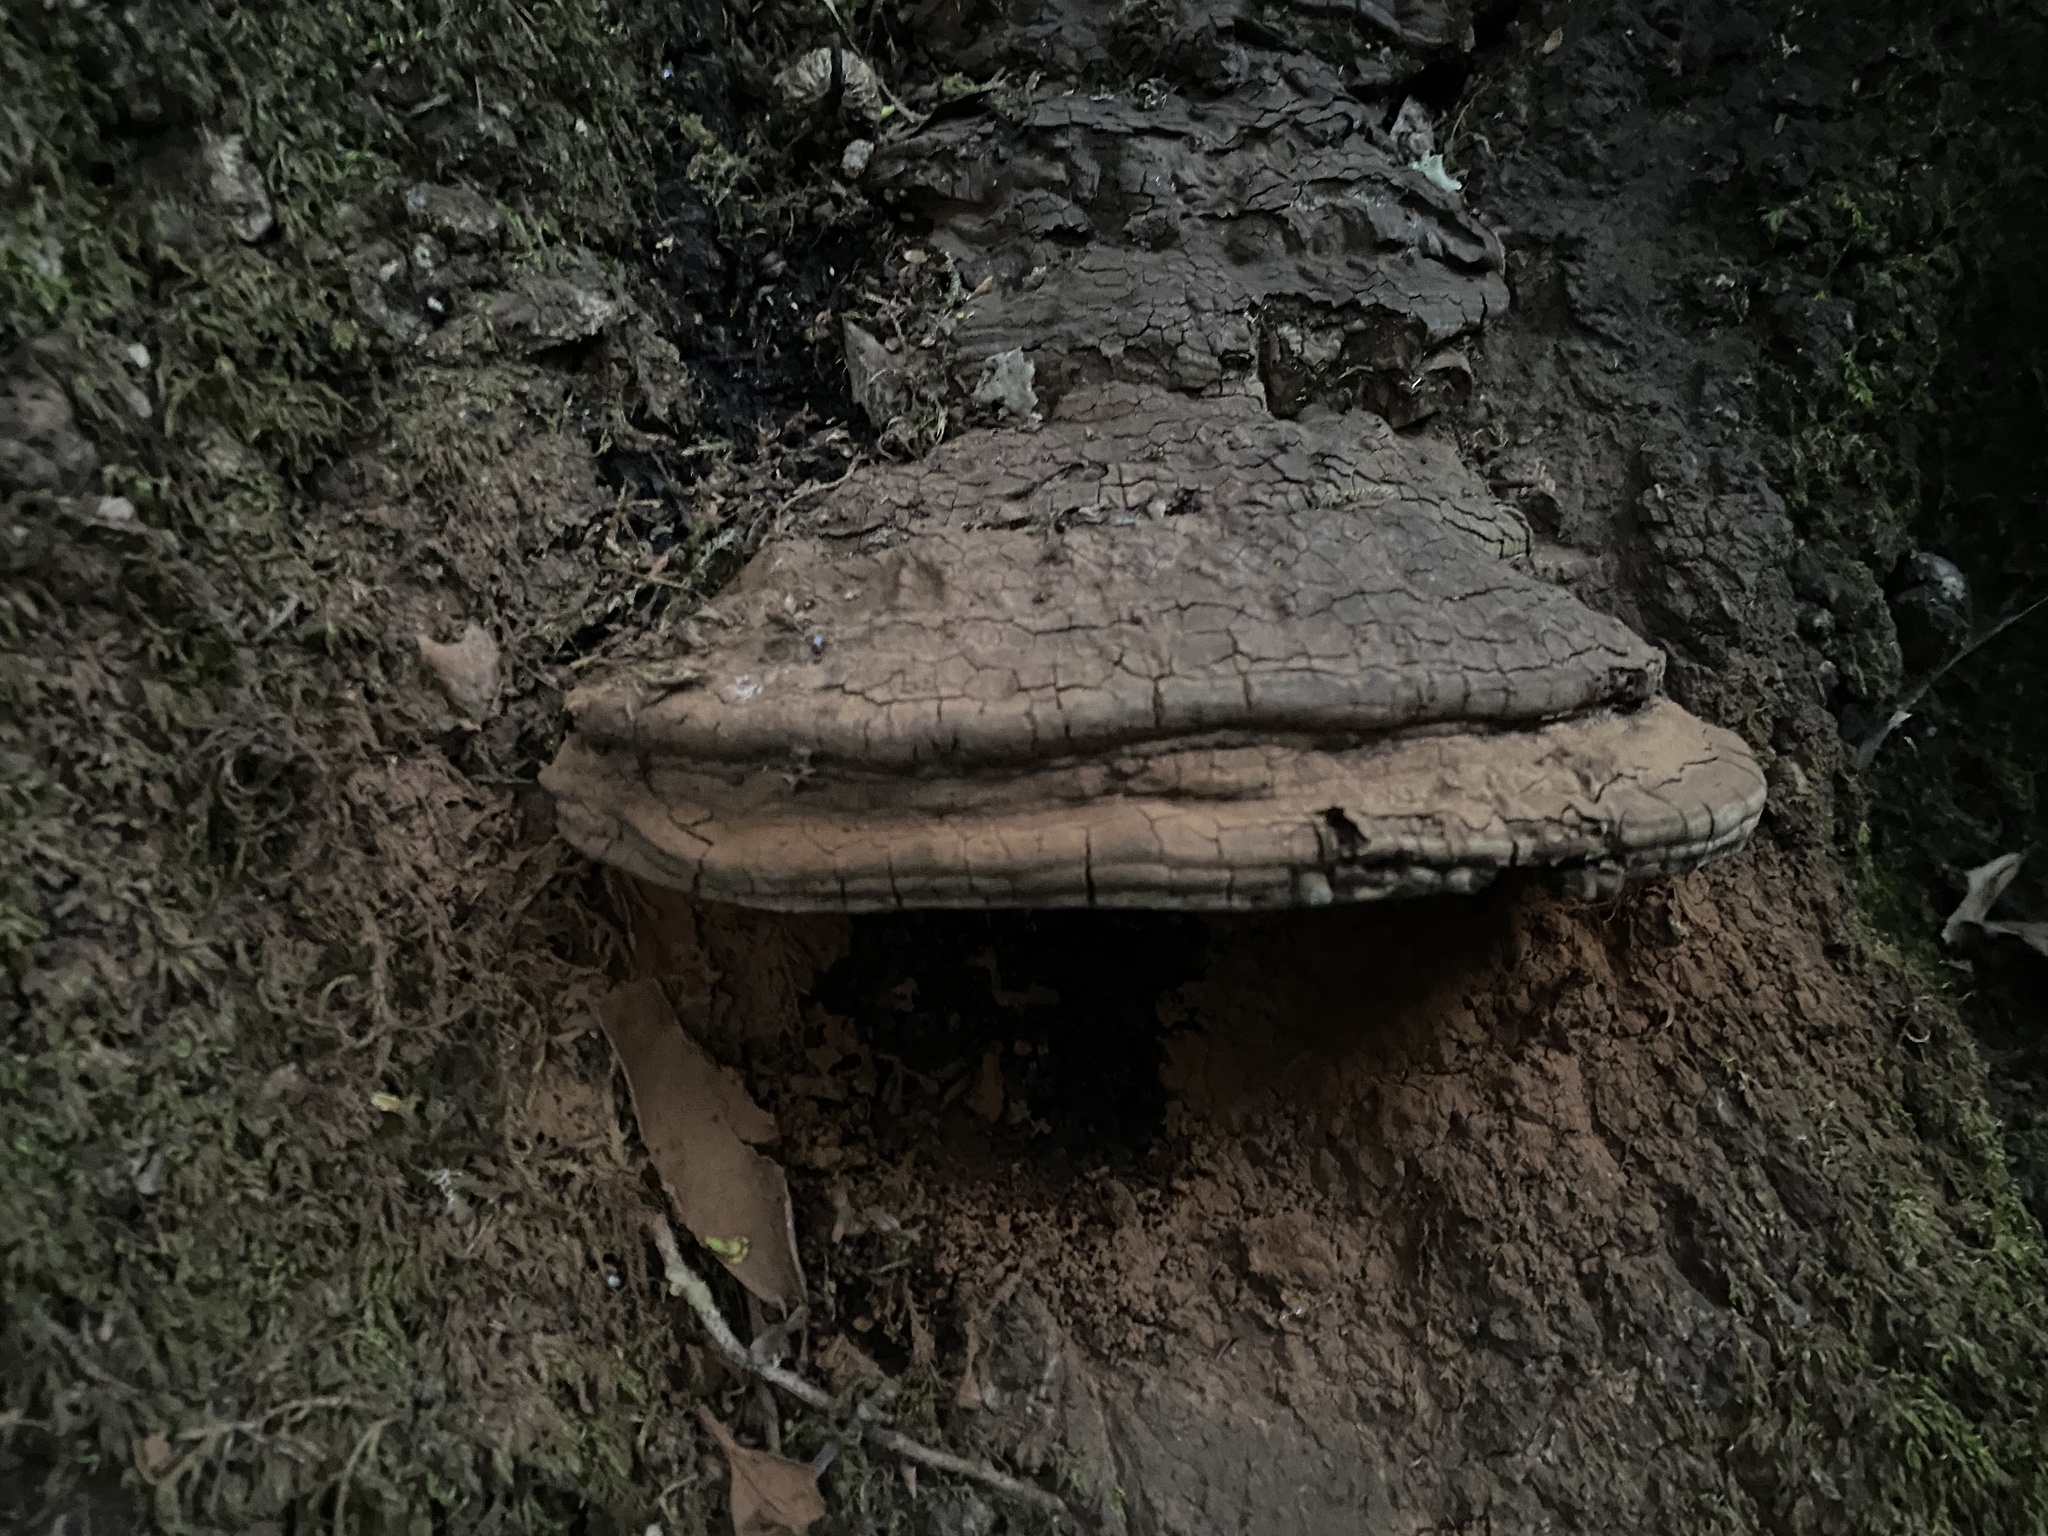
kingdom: Fungi
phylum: Basidiomycota
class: Agaricomycetes
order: Polyporales
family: Polyporaceae
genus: Ganoderma
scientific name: Ganoderma brownii
